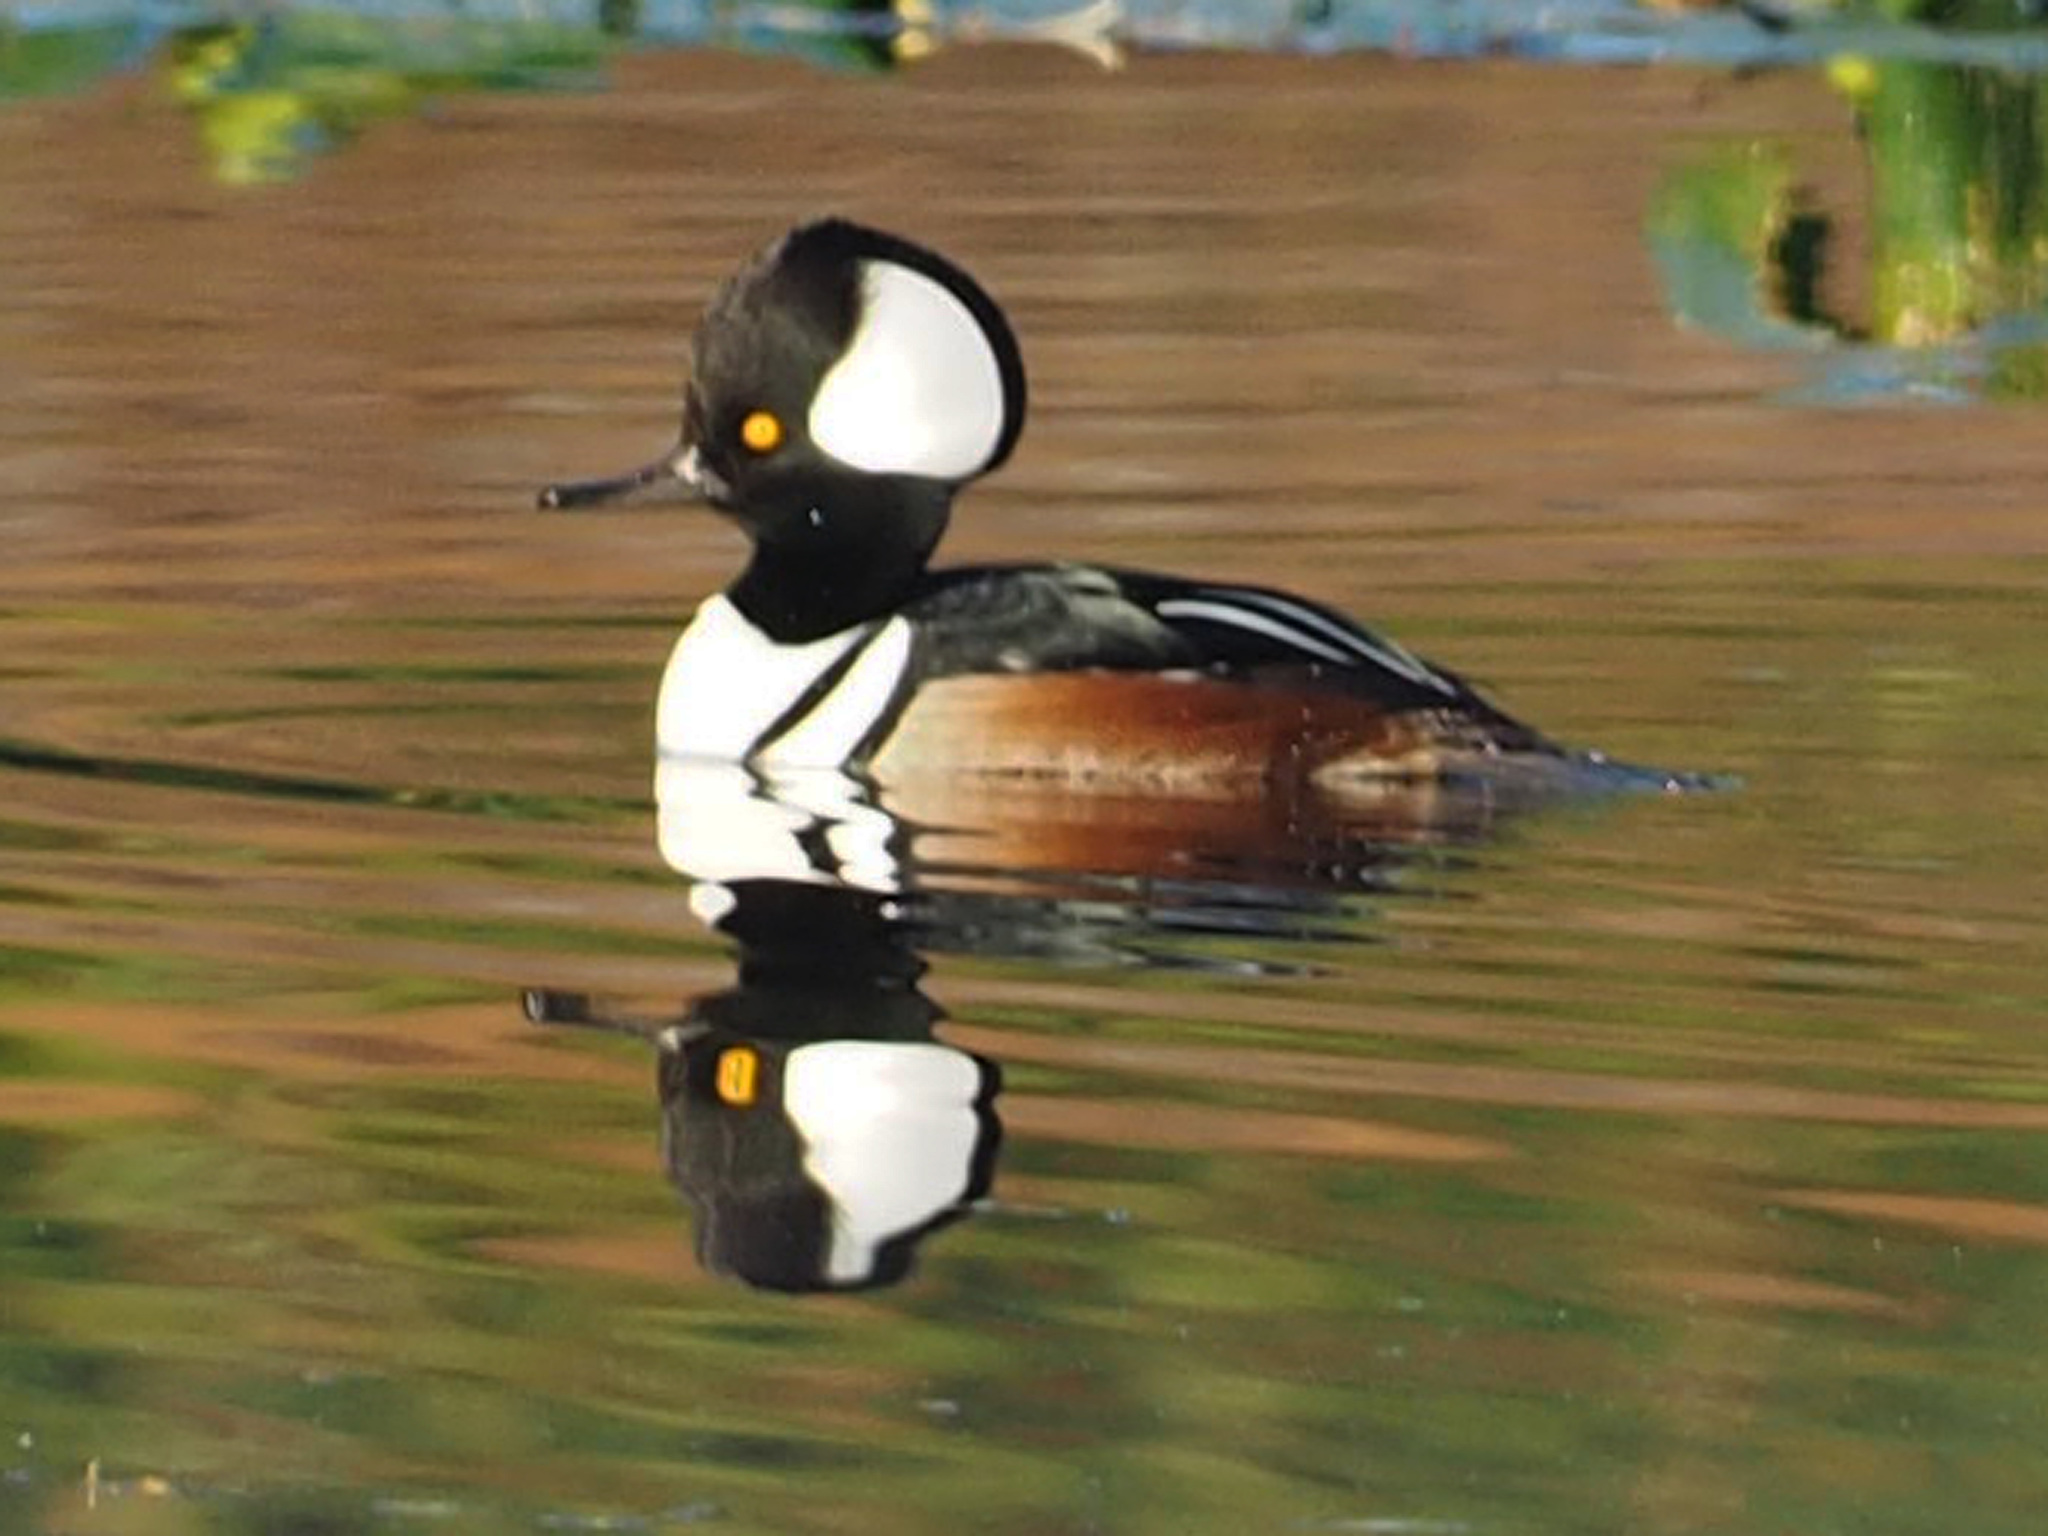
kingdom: Animalia
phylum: Chordata
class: Aves
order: Anseriformes
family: Anatidae
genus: Lophodytes
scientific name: Lophodytes cucullatus
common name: Hooded merganser
